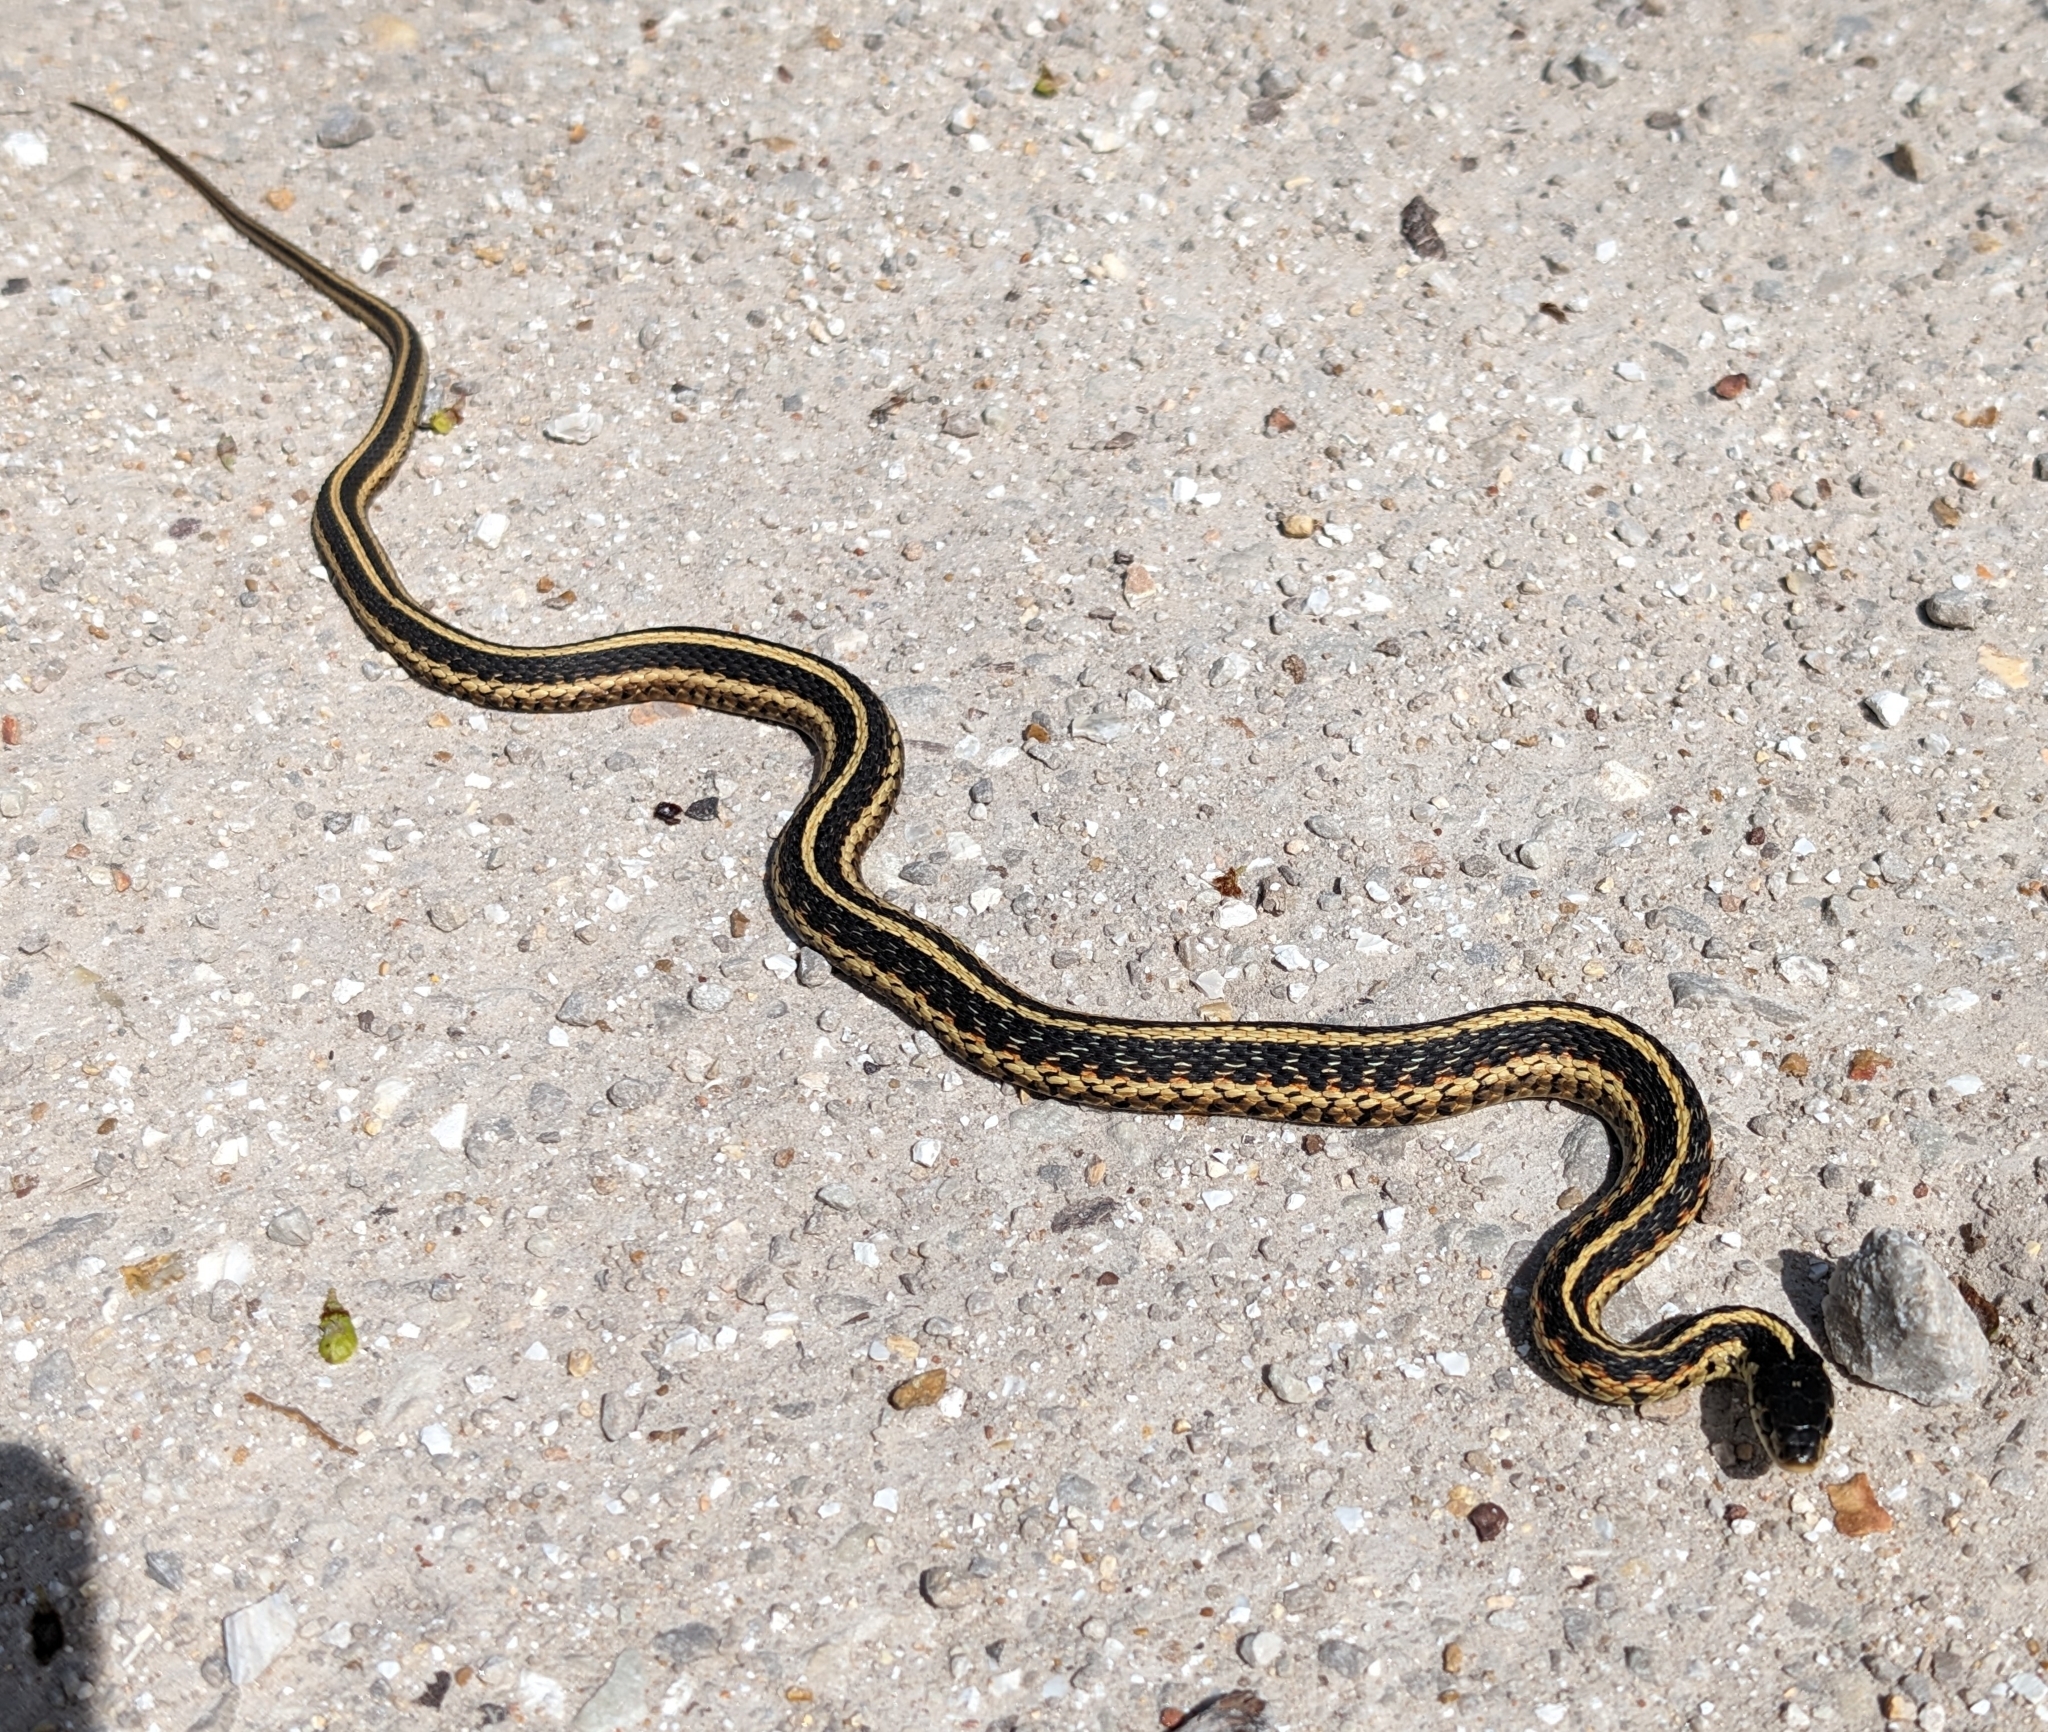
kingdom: Animalia
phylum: Chordata
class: Squamata
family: Colubridae
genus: Thamnophis
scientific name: Thamnophis sirtalis
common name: Common garter snake
